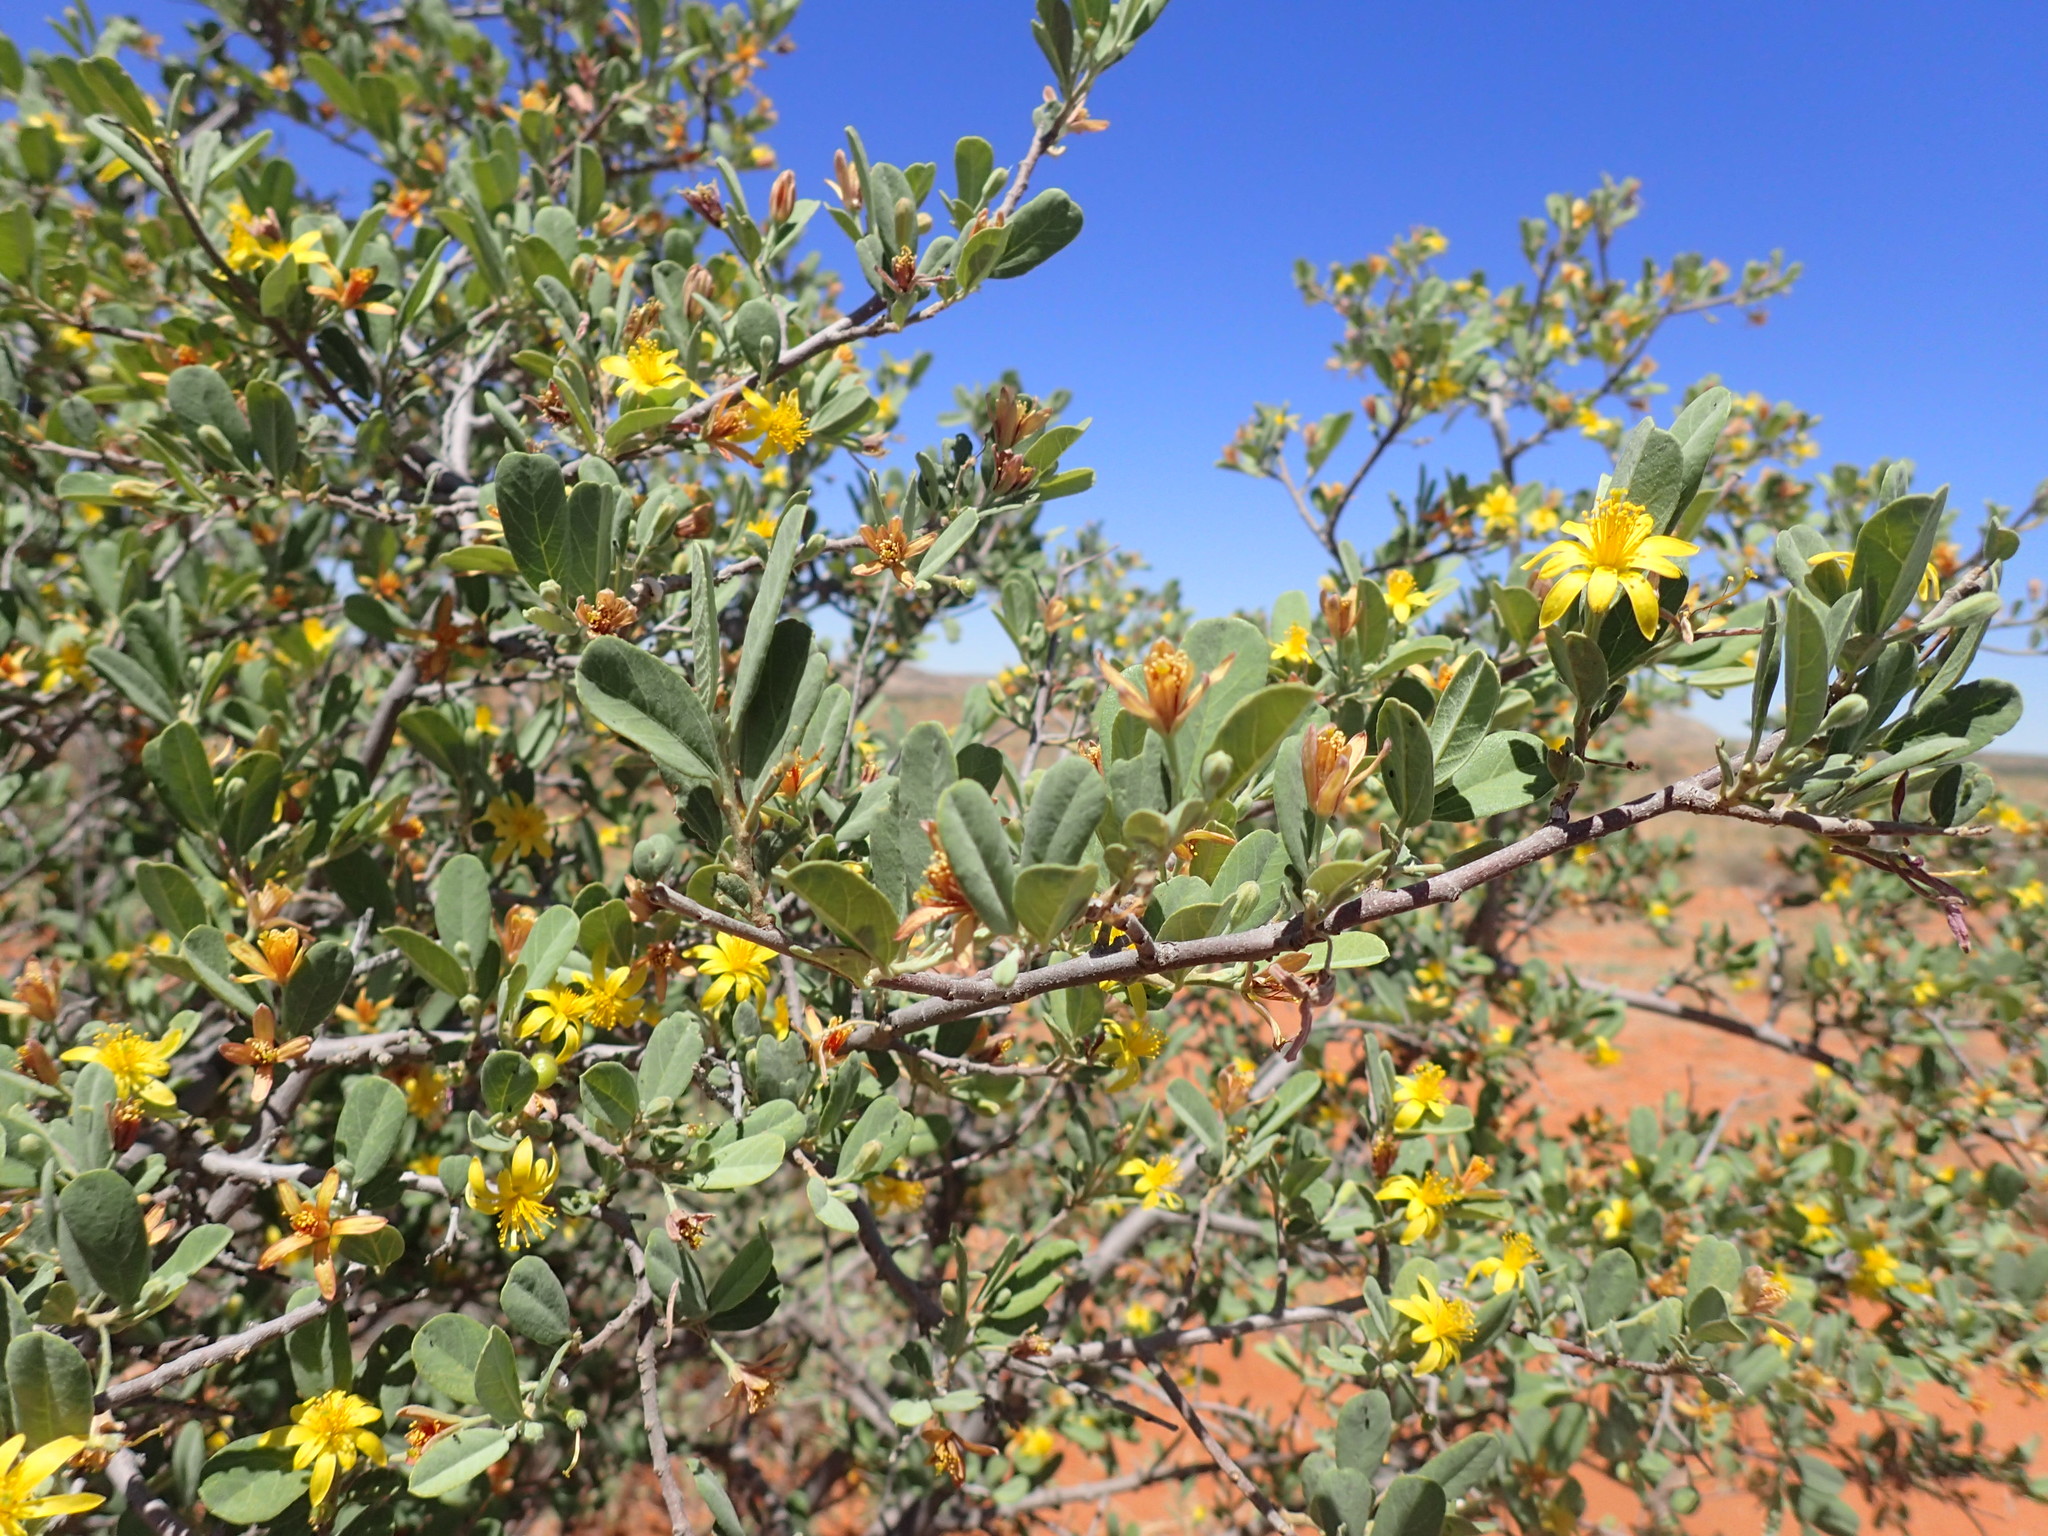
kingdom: Plantae
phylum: Tracheophyta
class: Magnoliopsida
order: Malvales
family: Malvaceae
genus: Grewia
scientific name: Grewia flava
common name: Brandy bush
